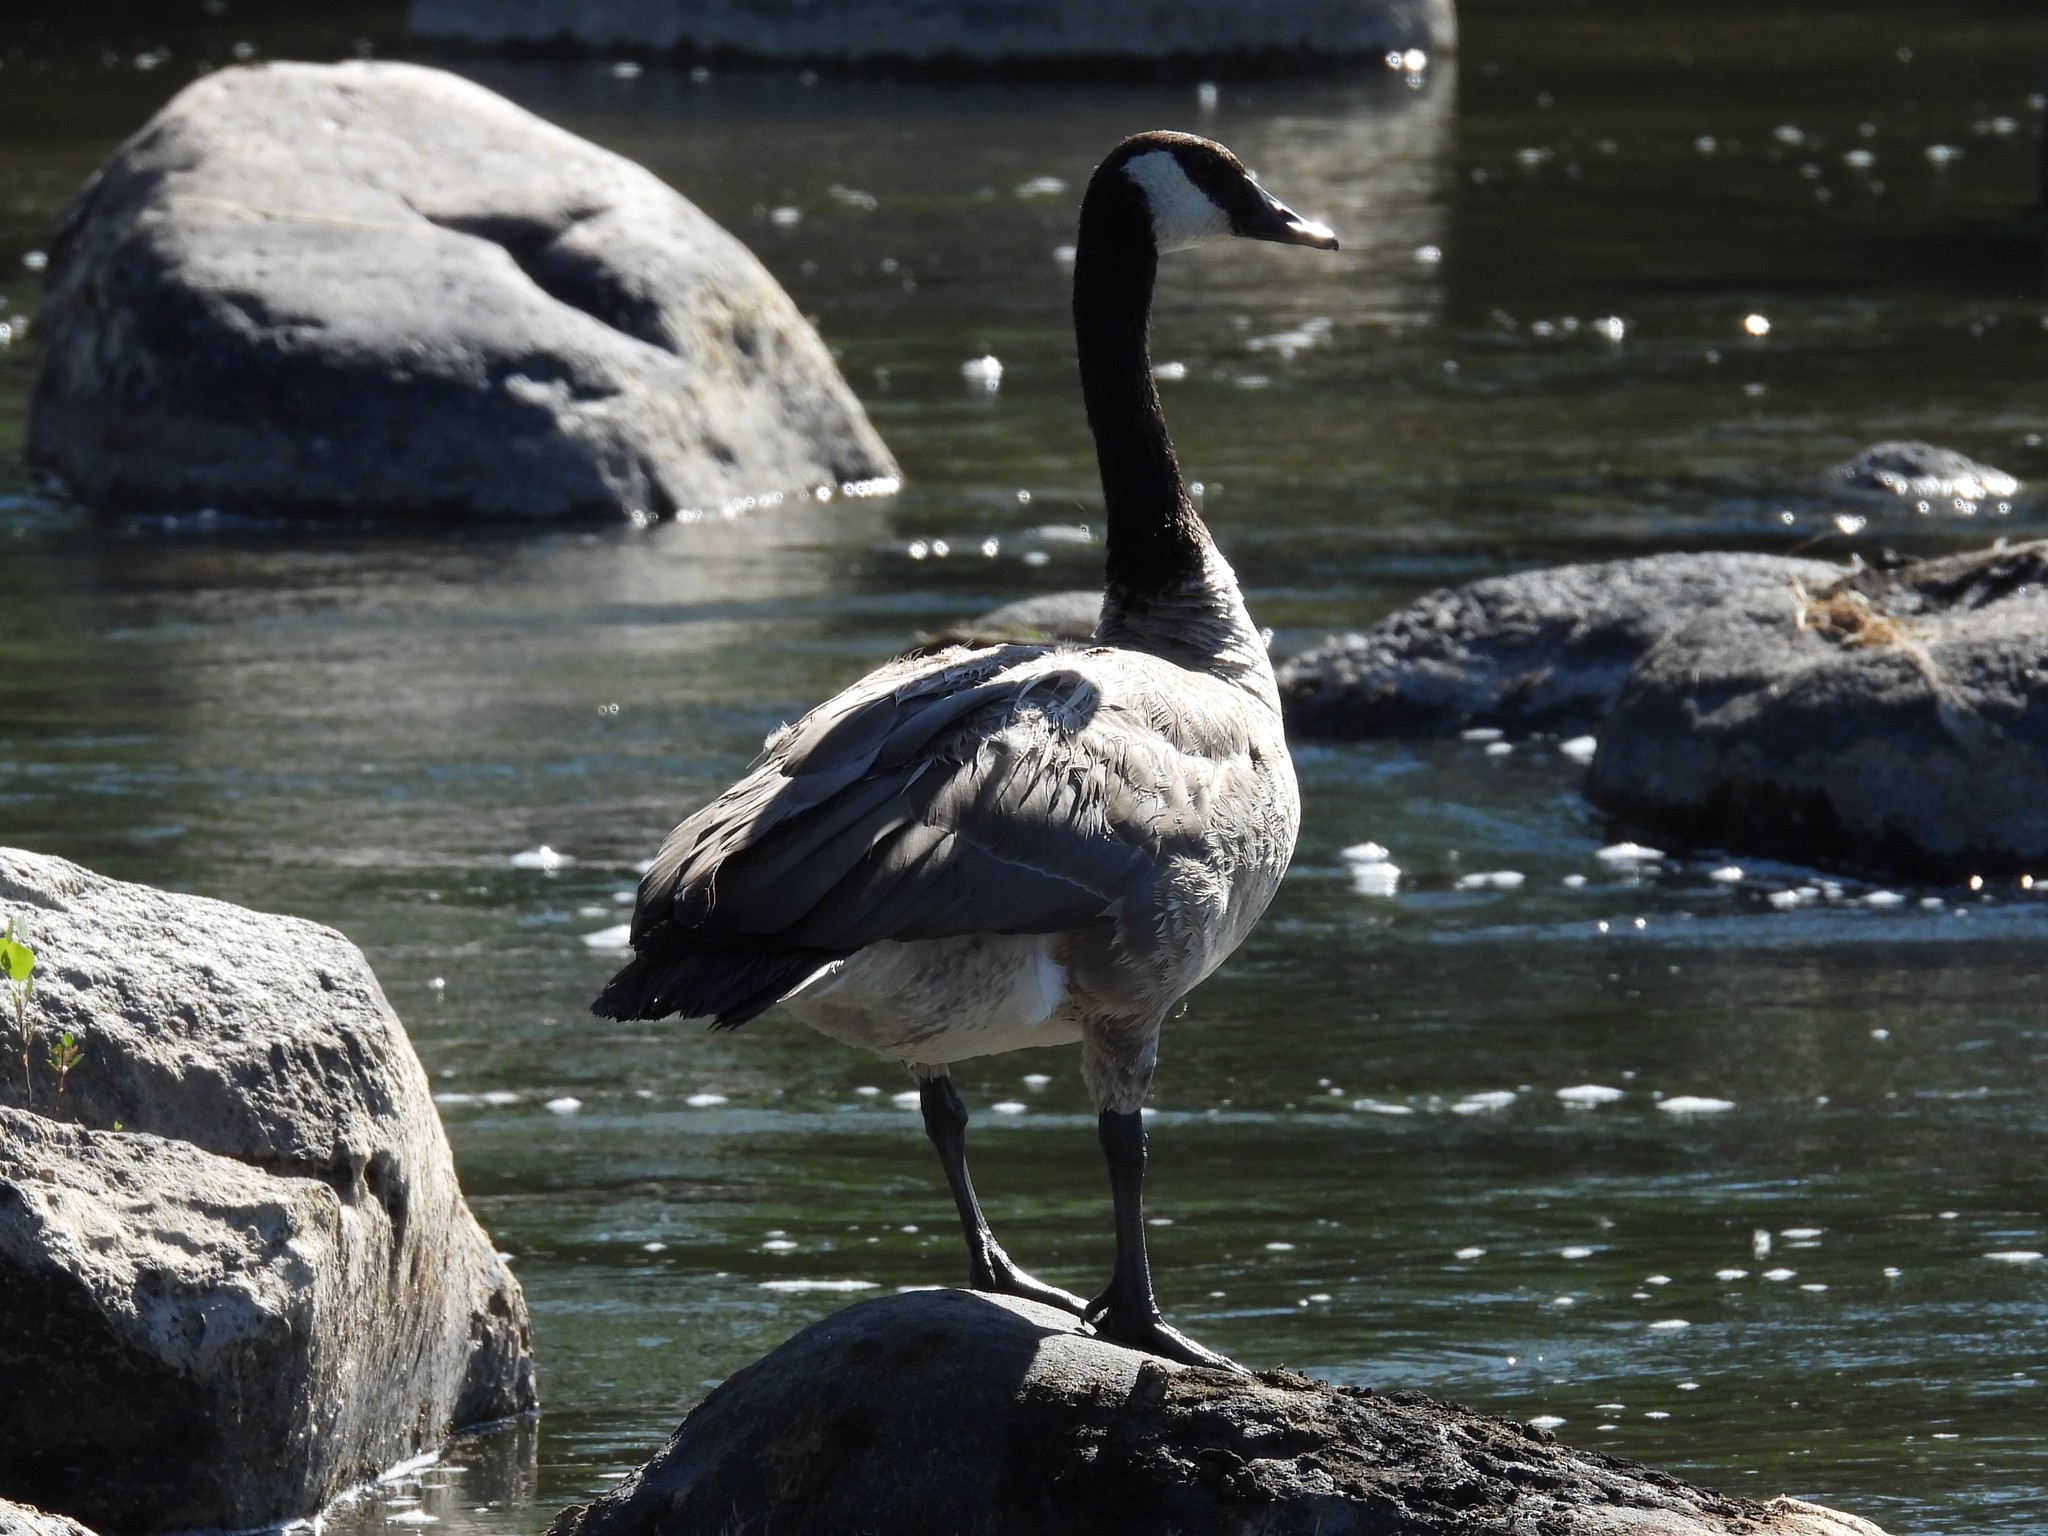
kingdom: Animalia
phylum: Chordata
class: Aves
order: Anseriformes
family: Anatidae
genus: Branta
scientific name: Branta canadensis
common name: Canada goose
